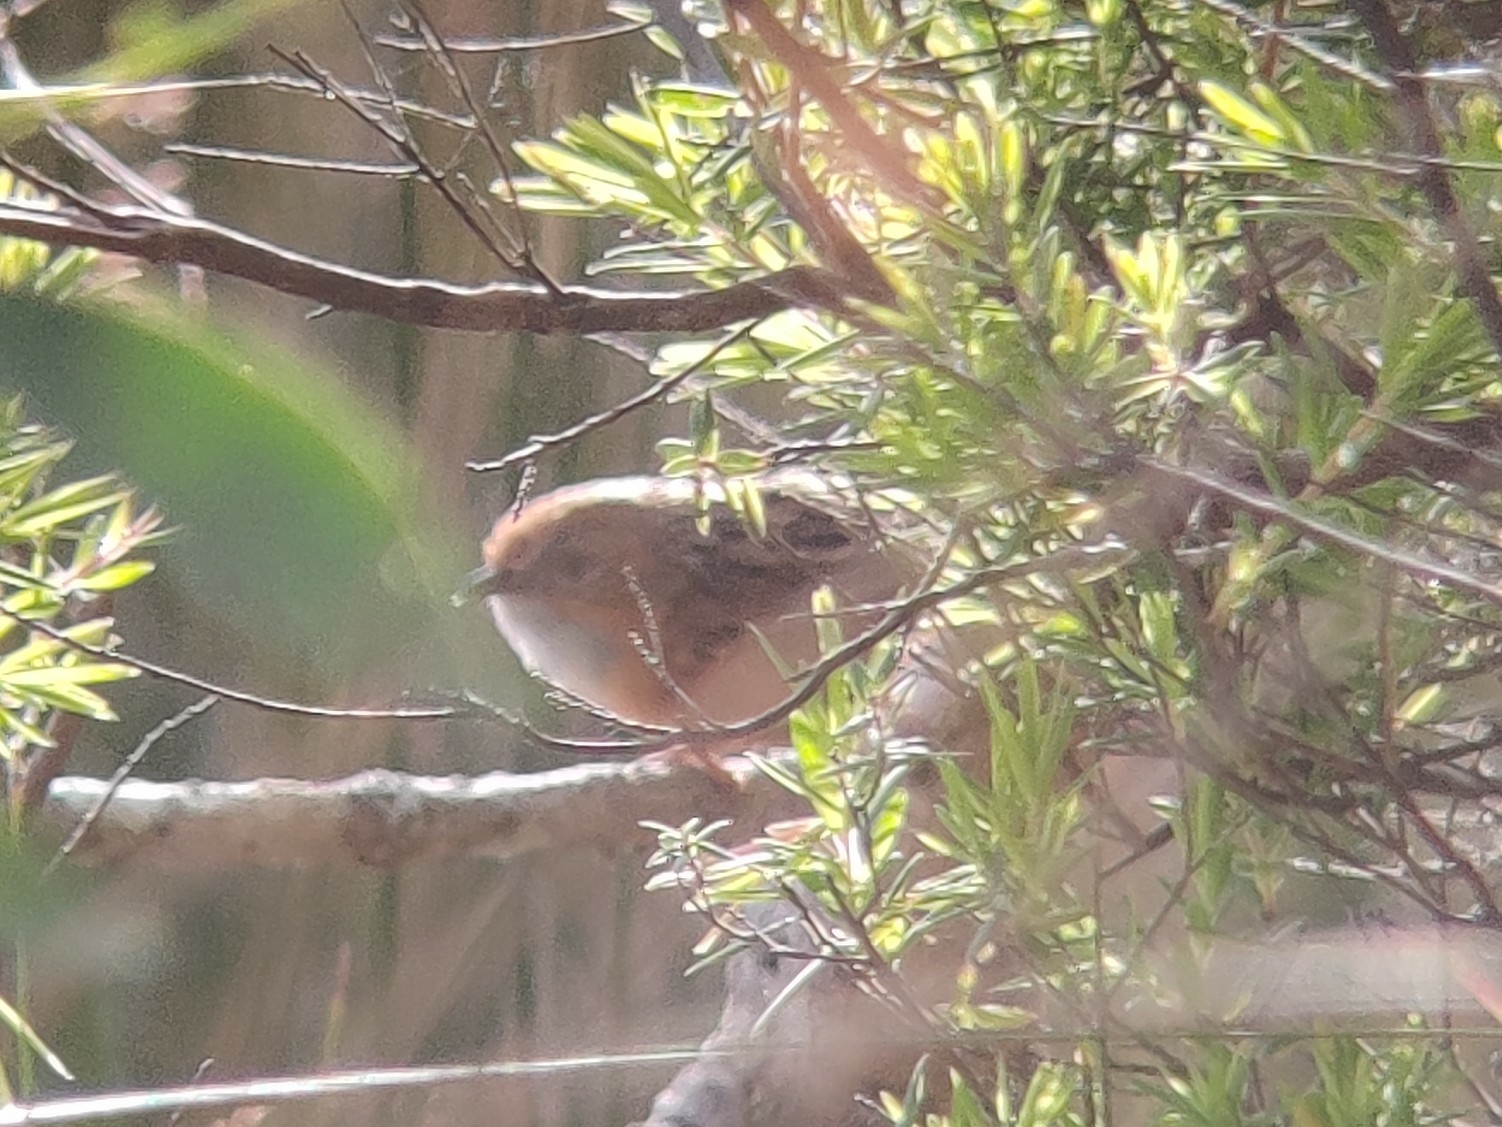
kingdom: Animalia
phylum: Chordata
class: Aves
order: Passeriformes
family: Maluridae
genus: Stipiturus
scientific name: Stipiturus malachurus
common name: Southern emu-wren
